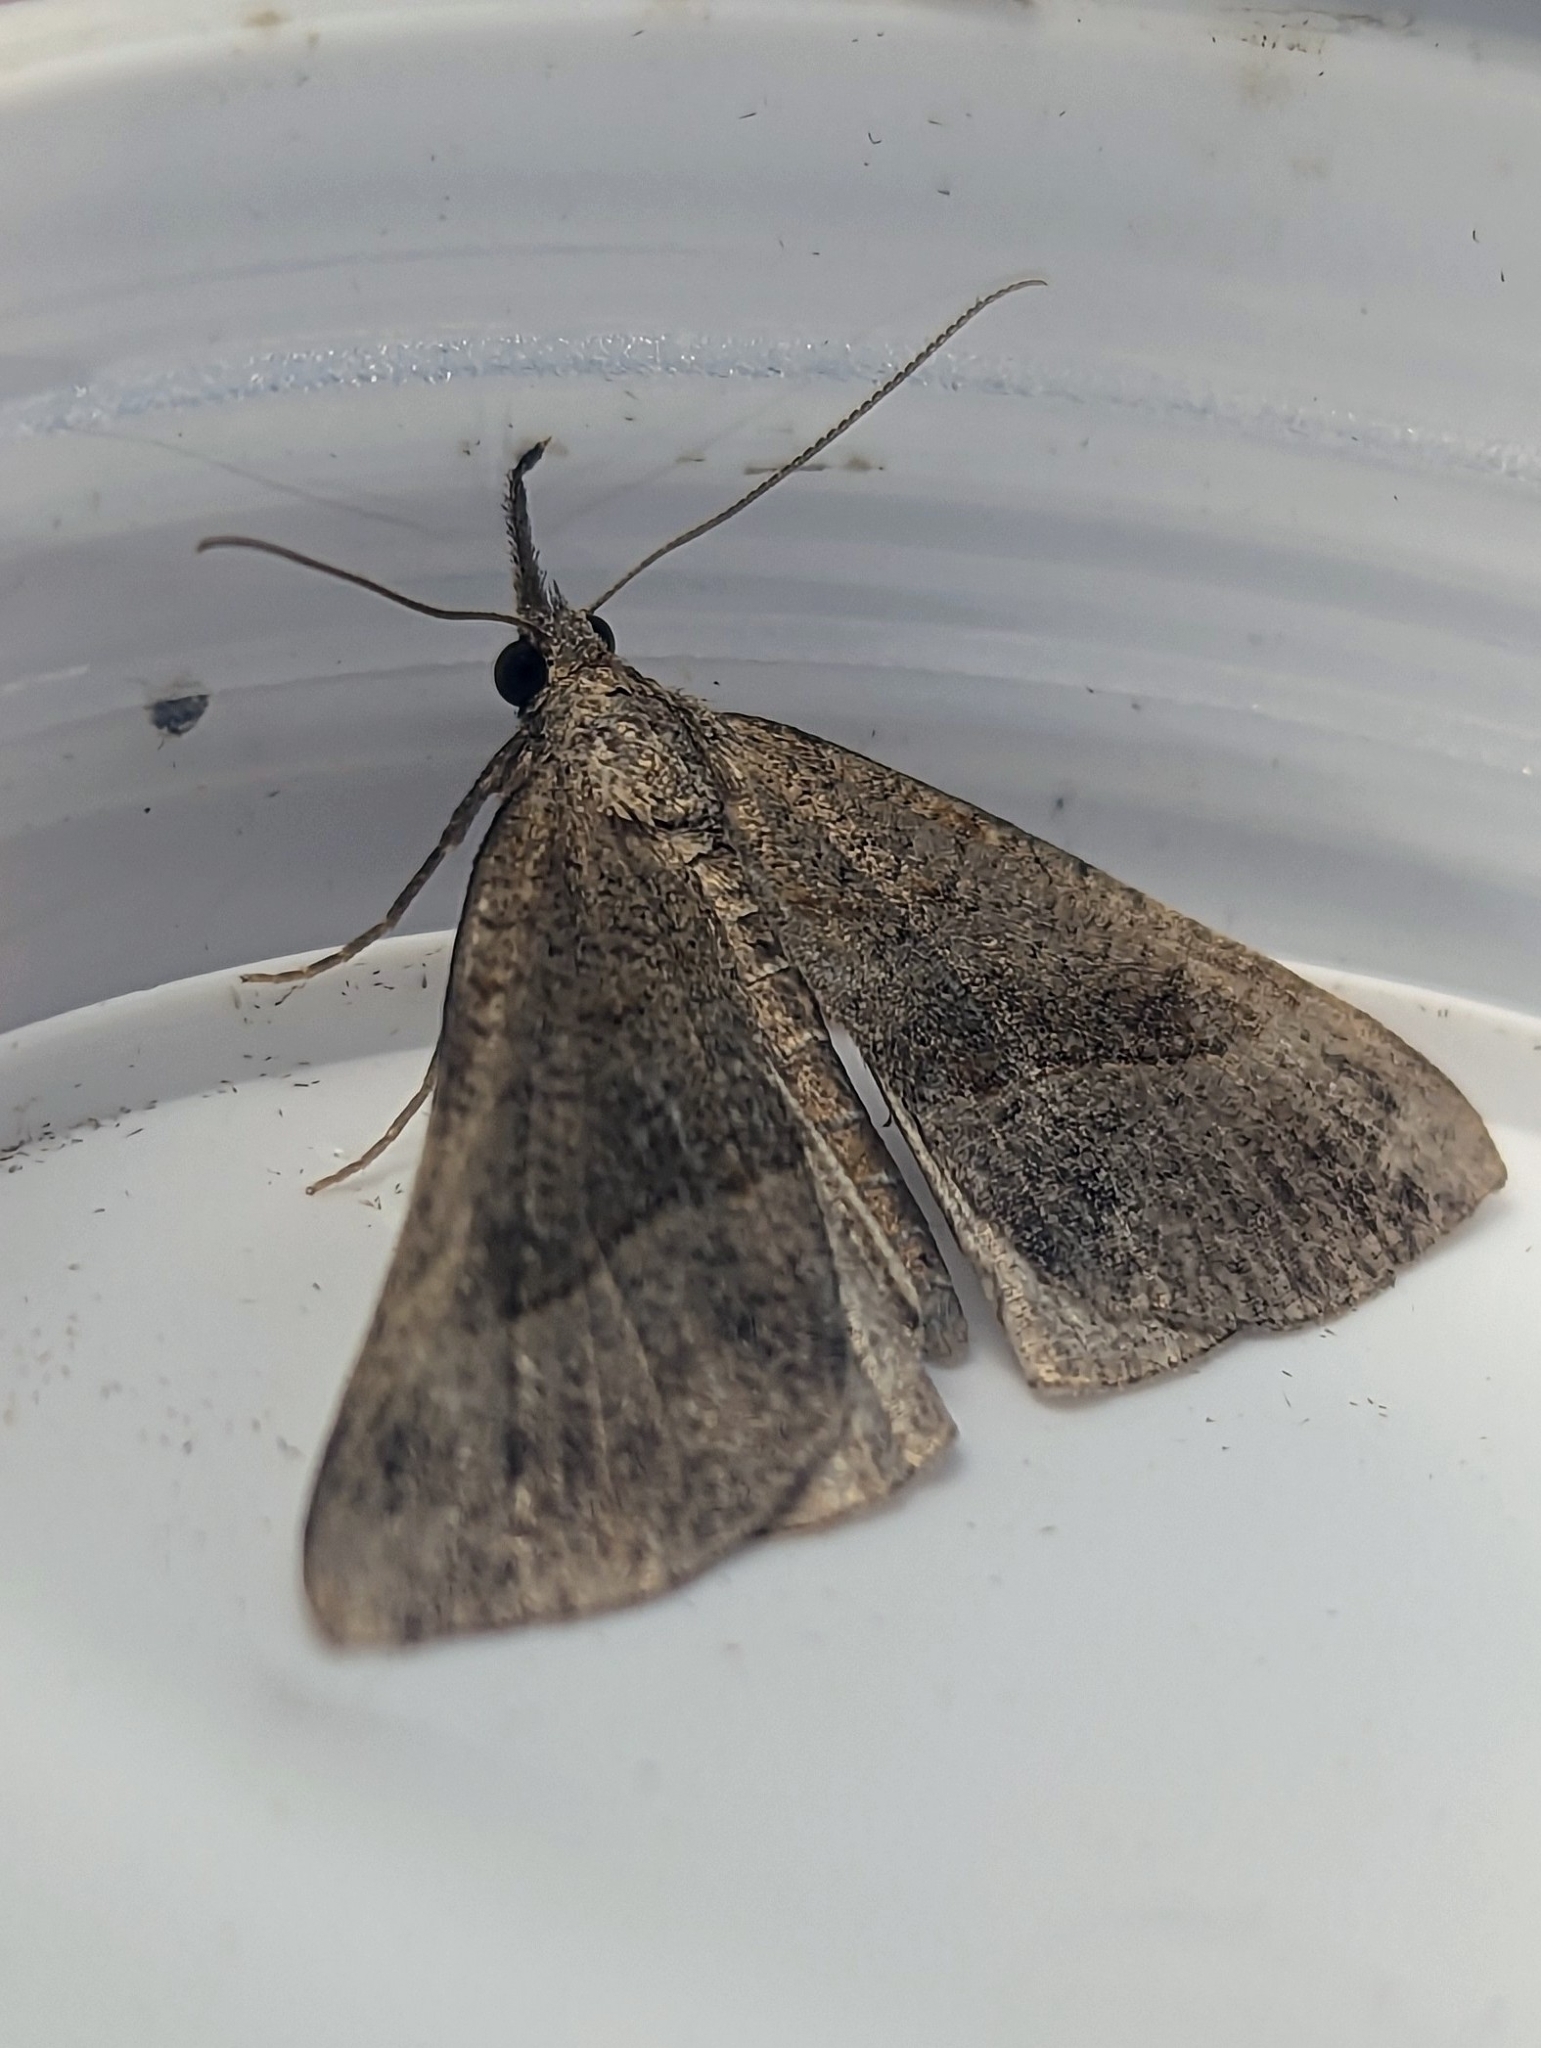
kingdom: Animalia
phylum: Arthropoda
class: Insecta
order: Lepidoptera
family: Erebidae
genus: Hypena
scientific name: Hypena proboscidalis
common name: Snout
